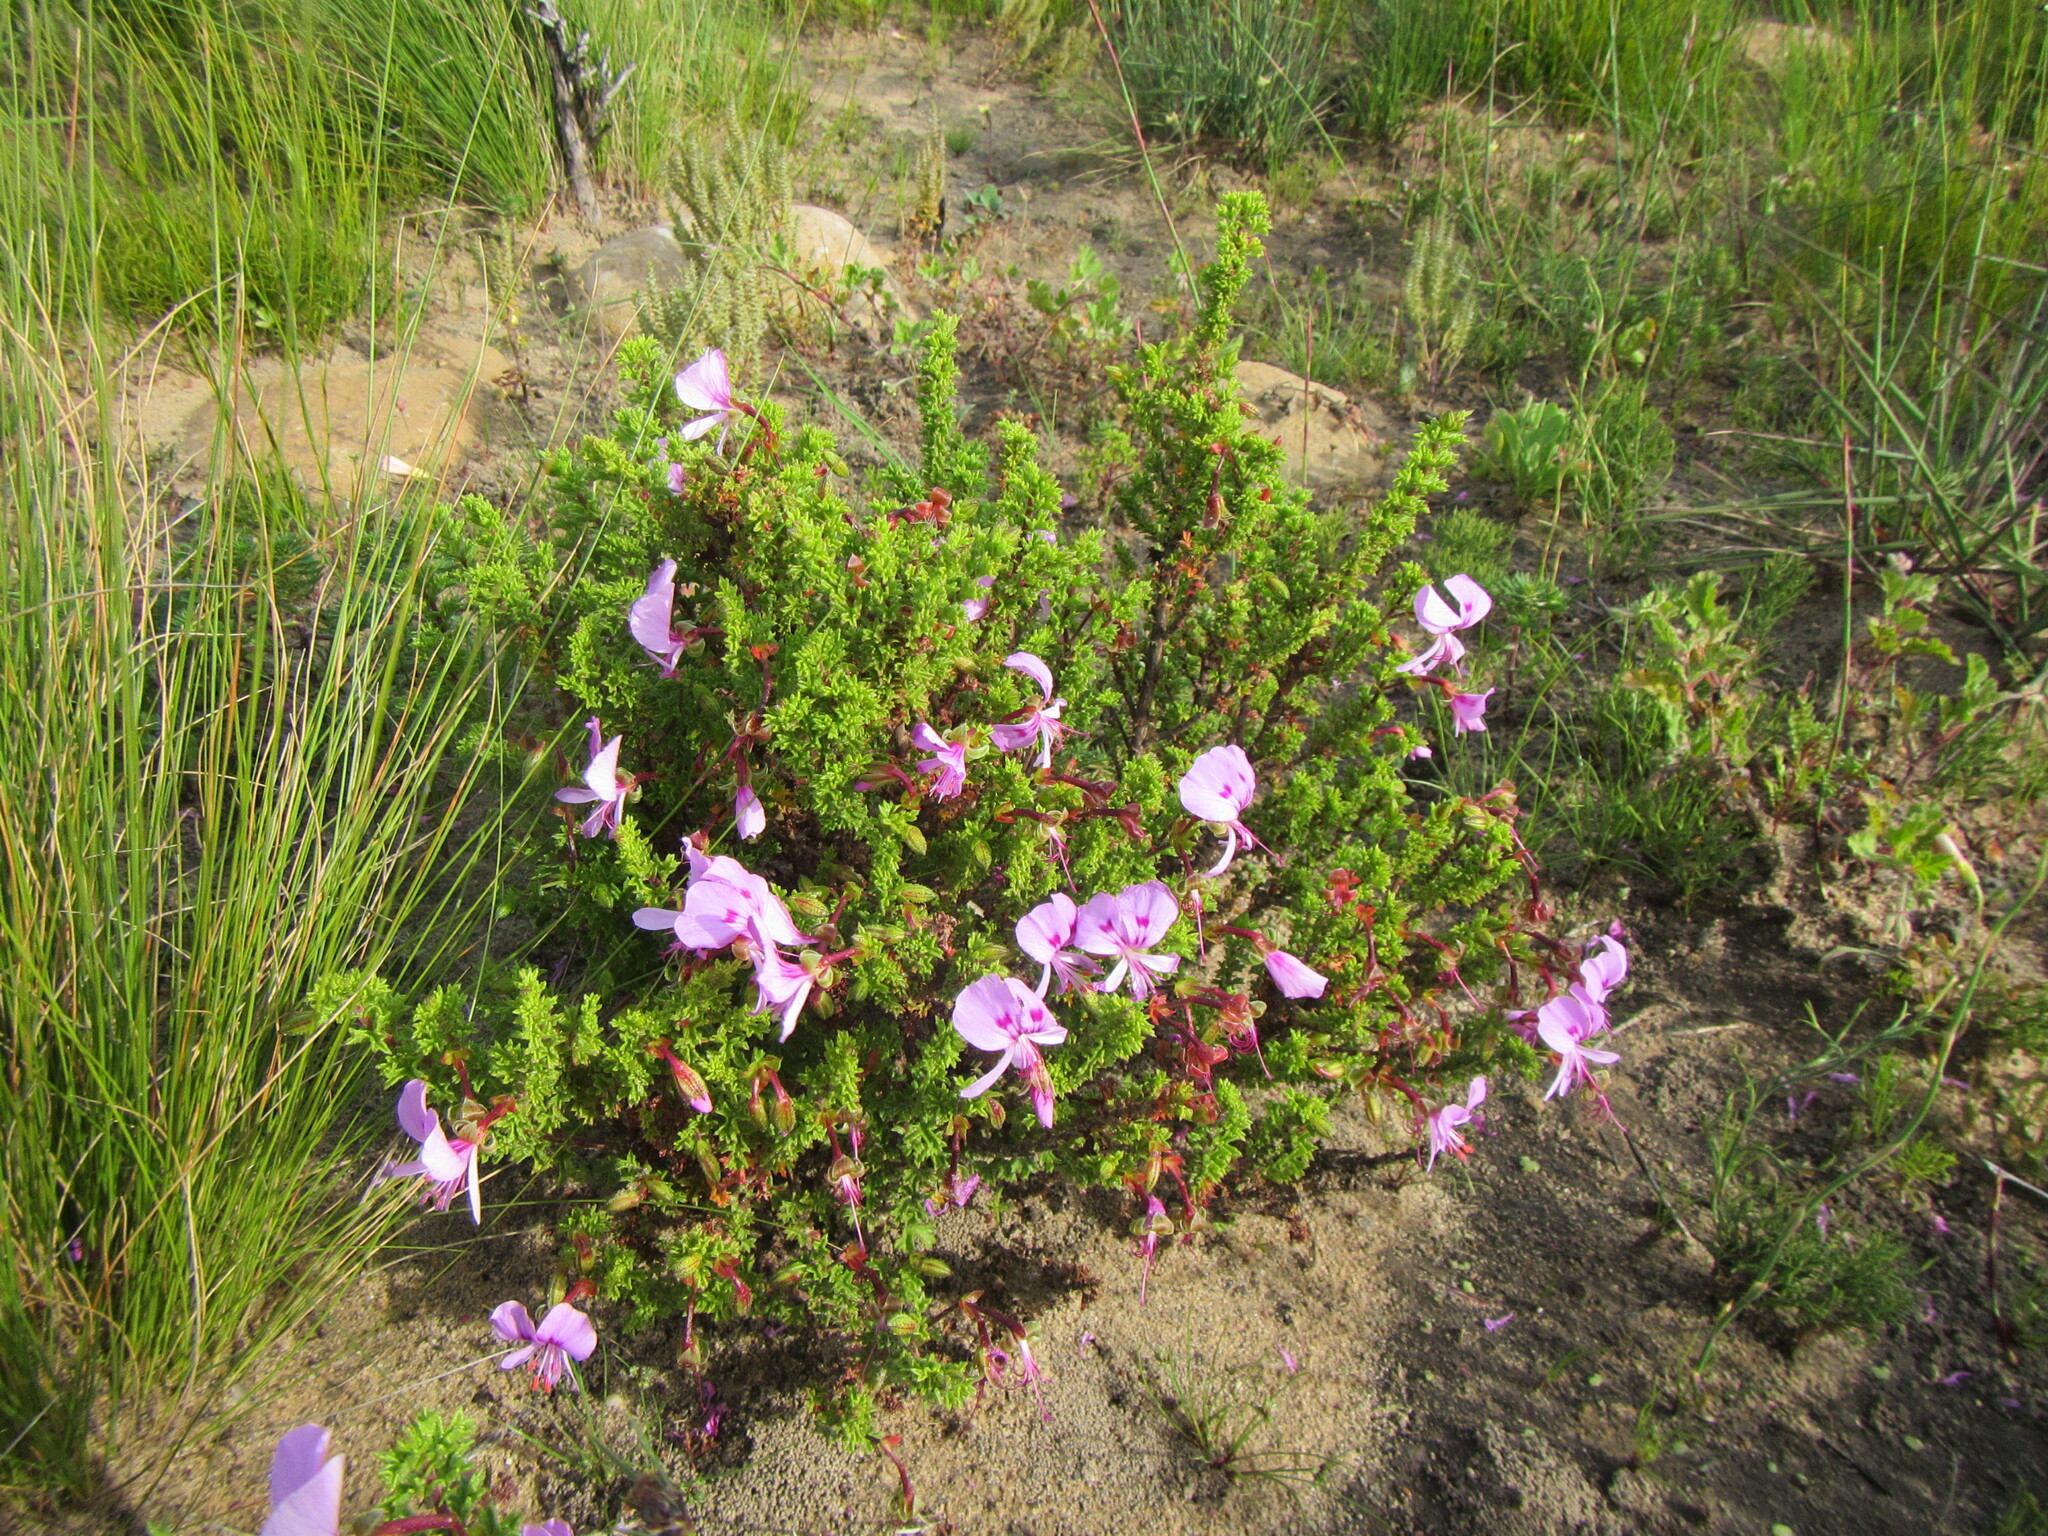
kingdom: Plantae
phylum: Tracheophyta
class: Magnoliopsida
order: Geraniales
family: Geraniaceae
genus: Pelargonium
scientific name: Pelargonium crispum
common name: Crisped-leaf pelargonium
